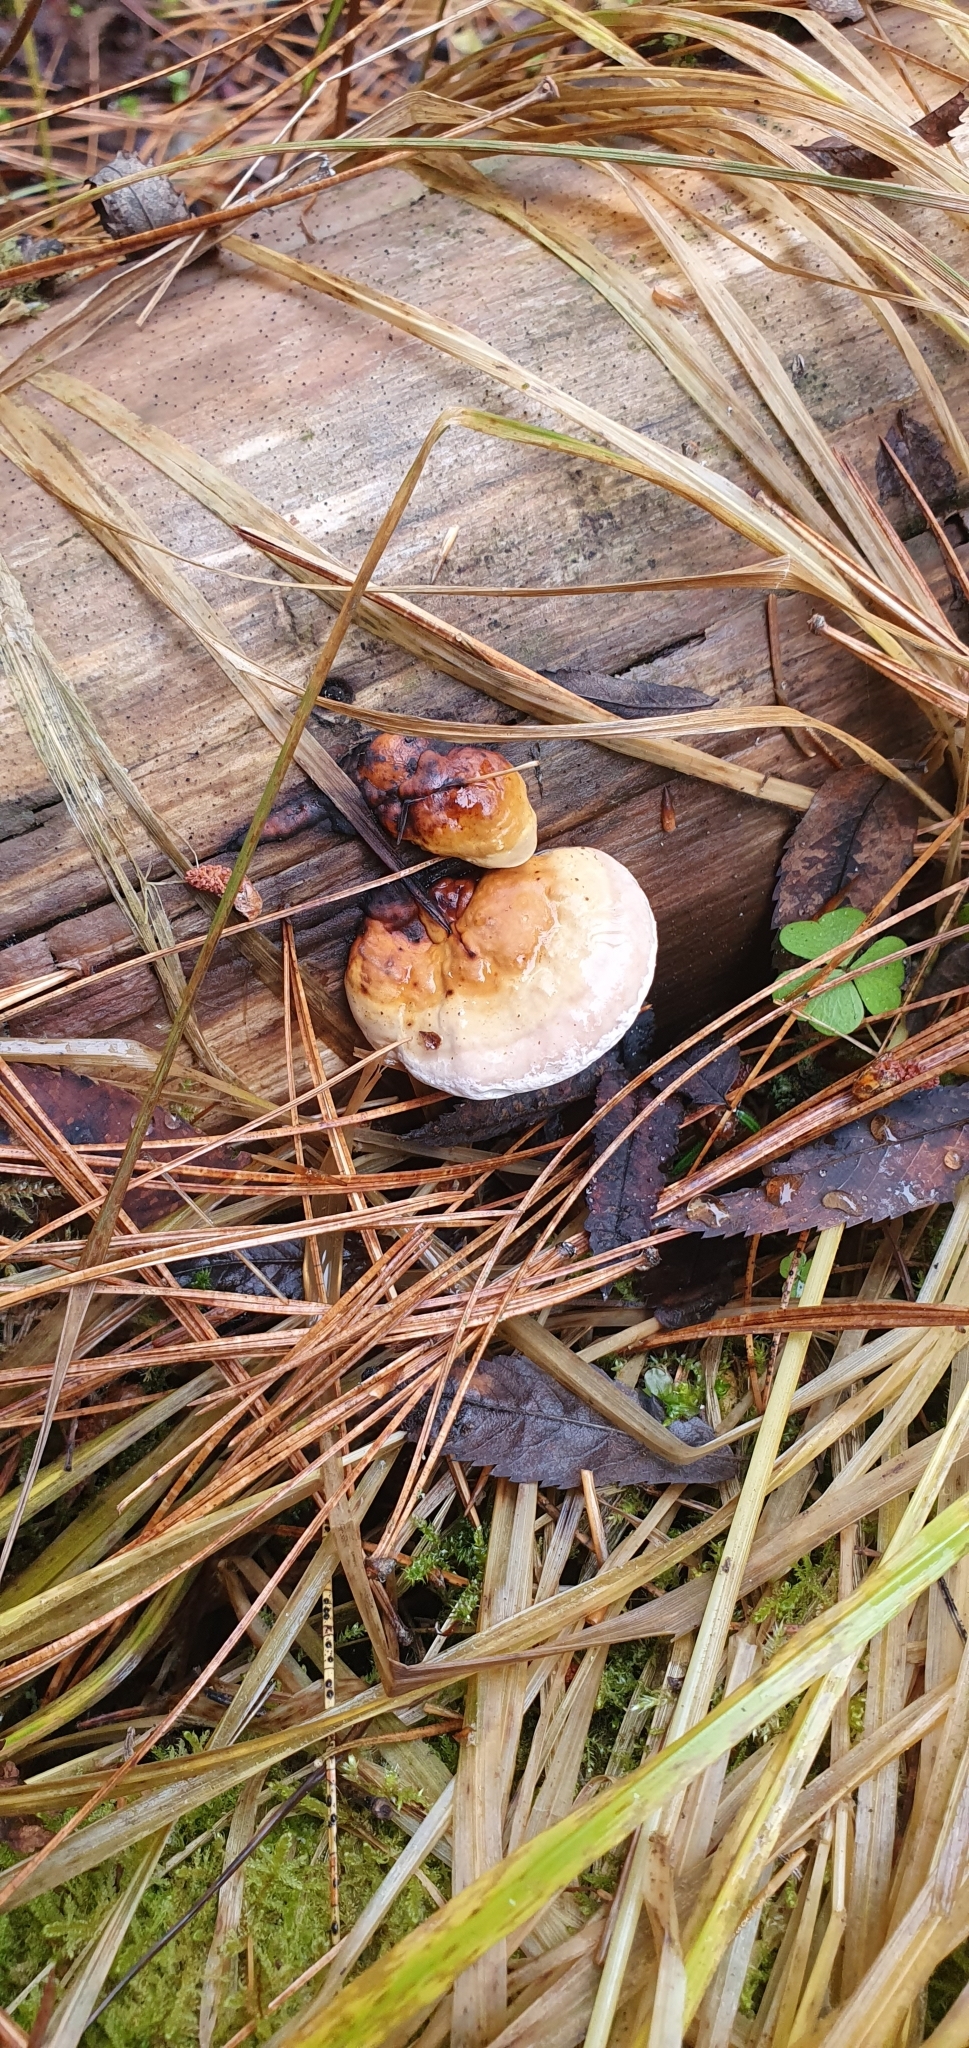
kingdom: Fungi
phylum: Basidiomycota
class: Agaricomycetes
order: Polyporales
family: Fomitopsidaceae
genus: Fomitopsis
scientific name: Fomitopsis pinicola
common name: Red-belted bracket
